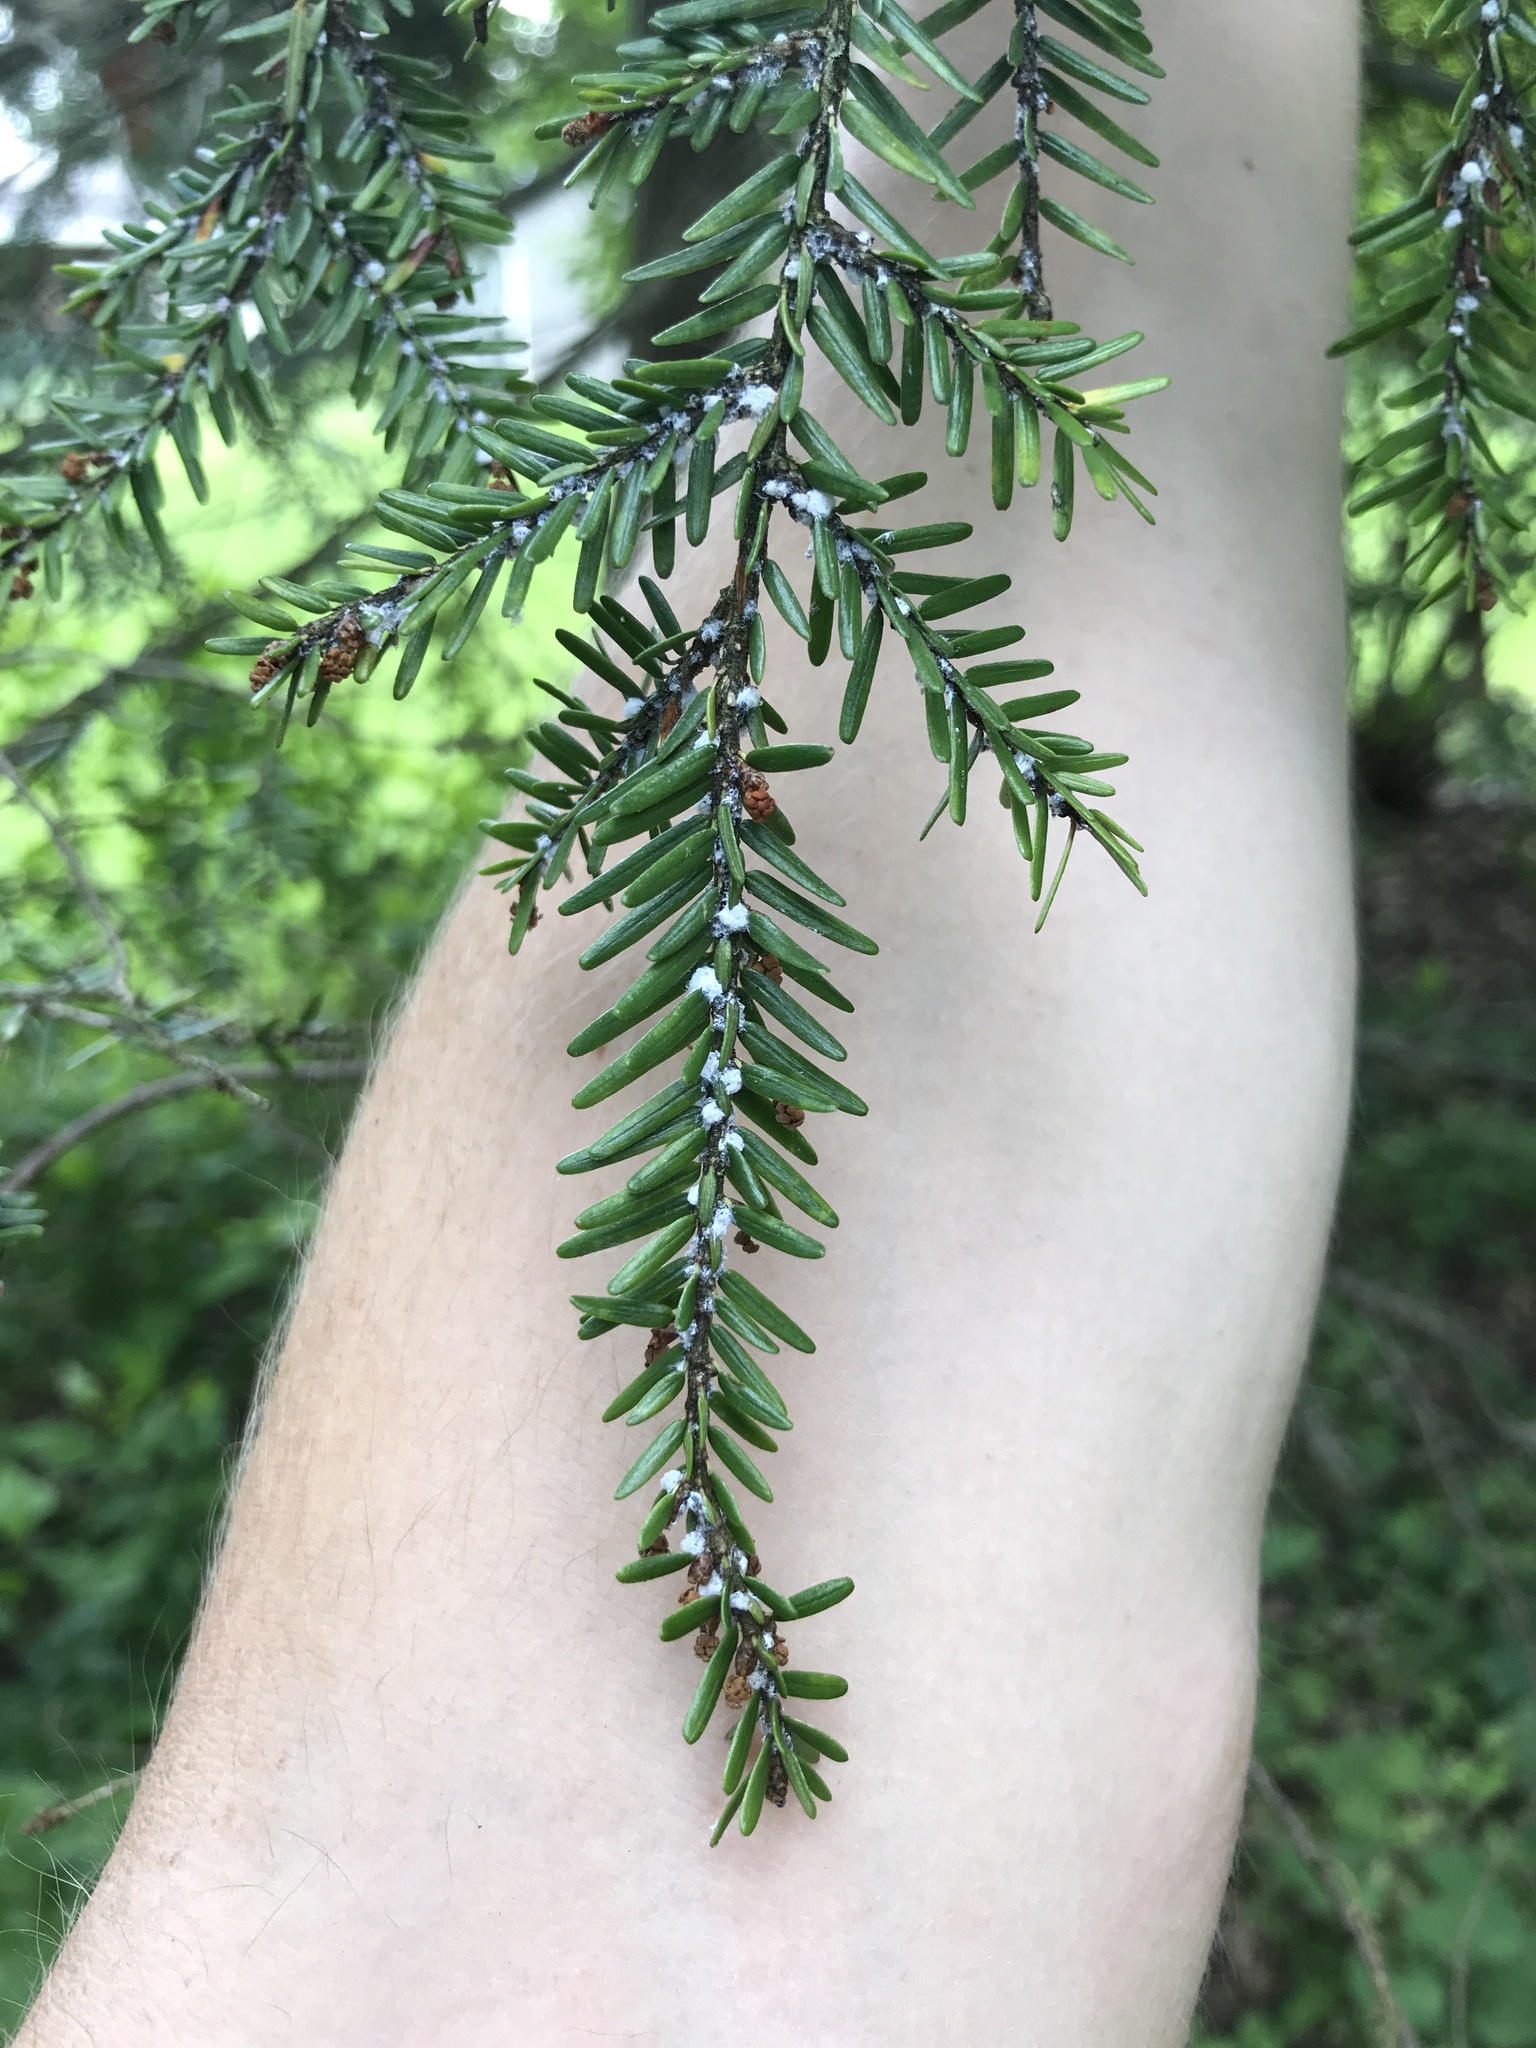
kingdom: Animalia
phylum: Arthropoda
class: Insecta
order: Hemiptera
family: Adelgidae
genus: Adelges
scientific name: Adelges tsugae
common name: Hemlock woolly adelgid
